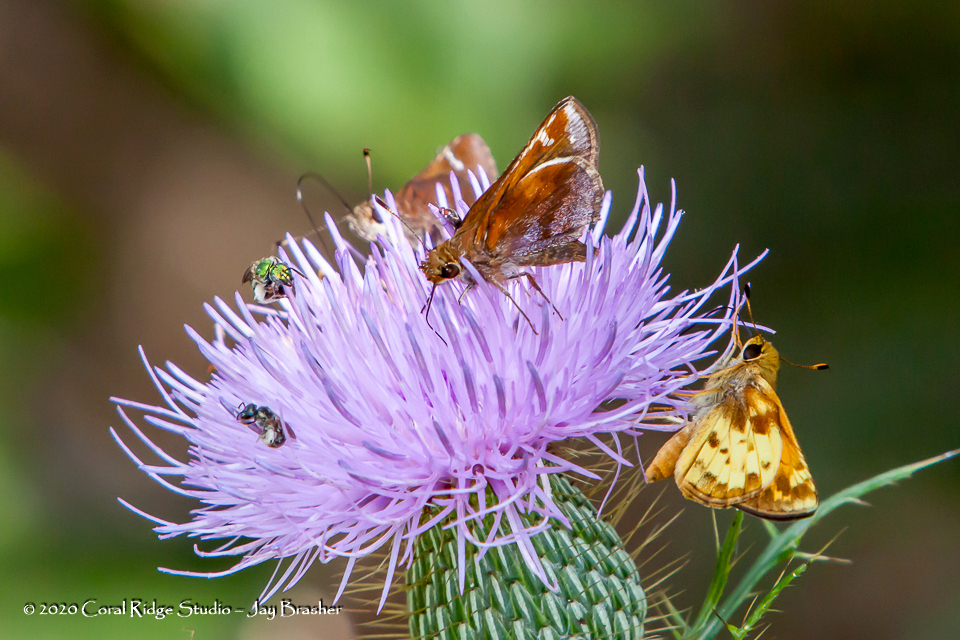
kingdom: Animalia
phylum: Arthropoda
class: Insecta
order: Lepidoptera
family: Hesperiidae
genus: Lon
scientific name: Lon zabulon
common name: Zabulon skipper
